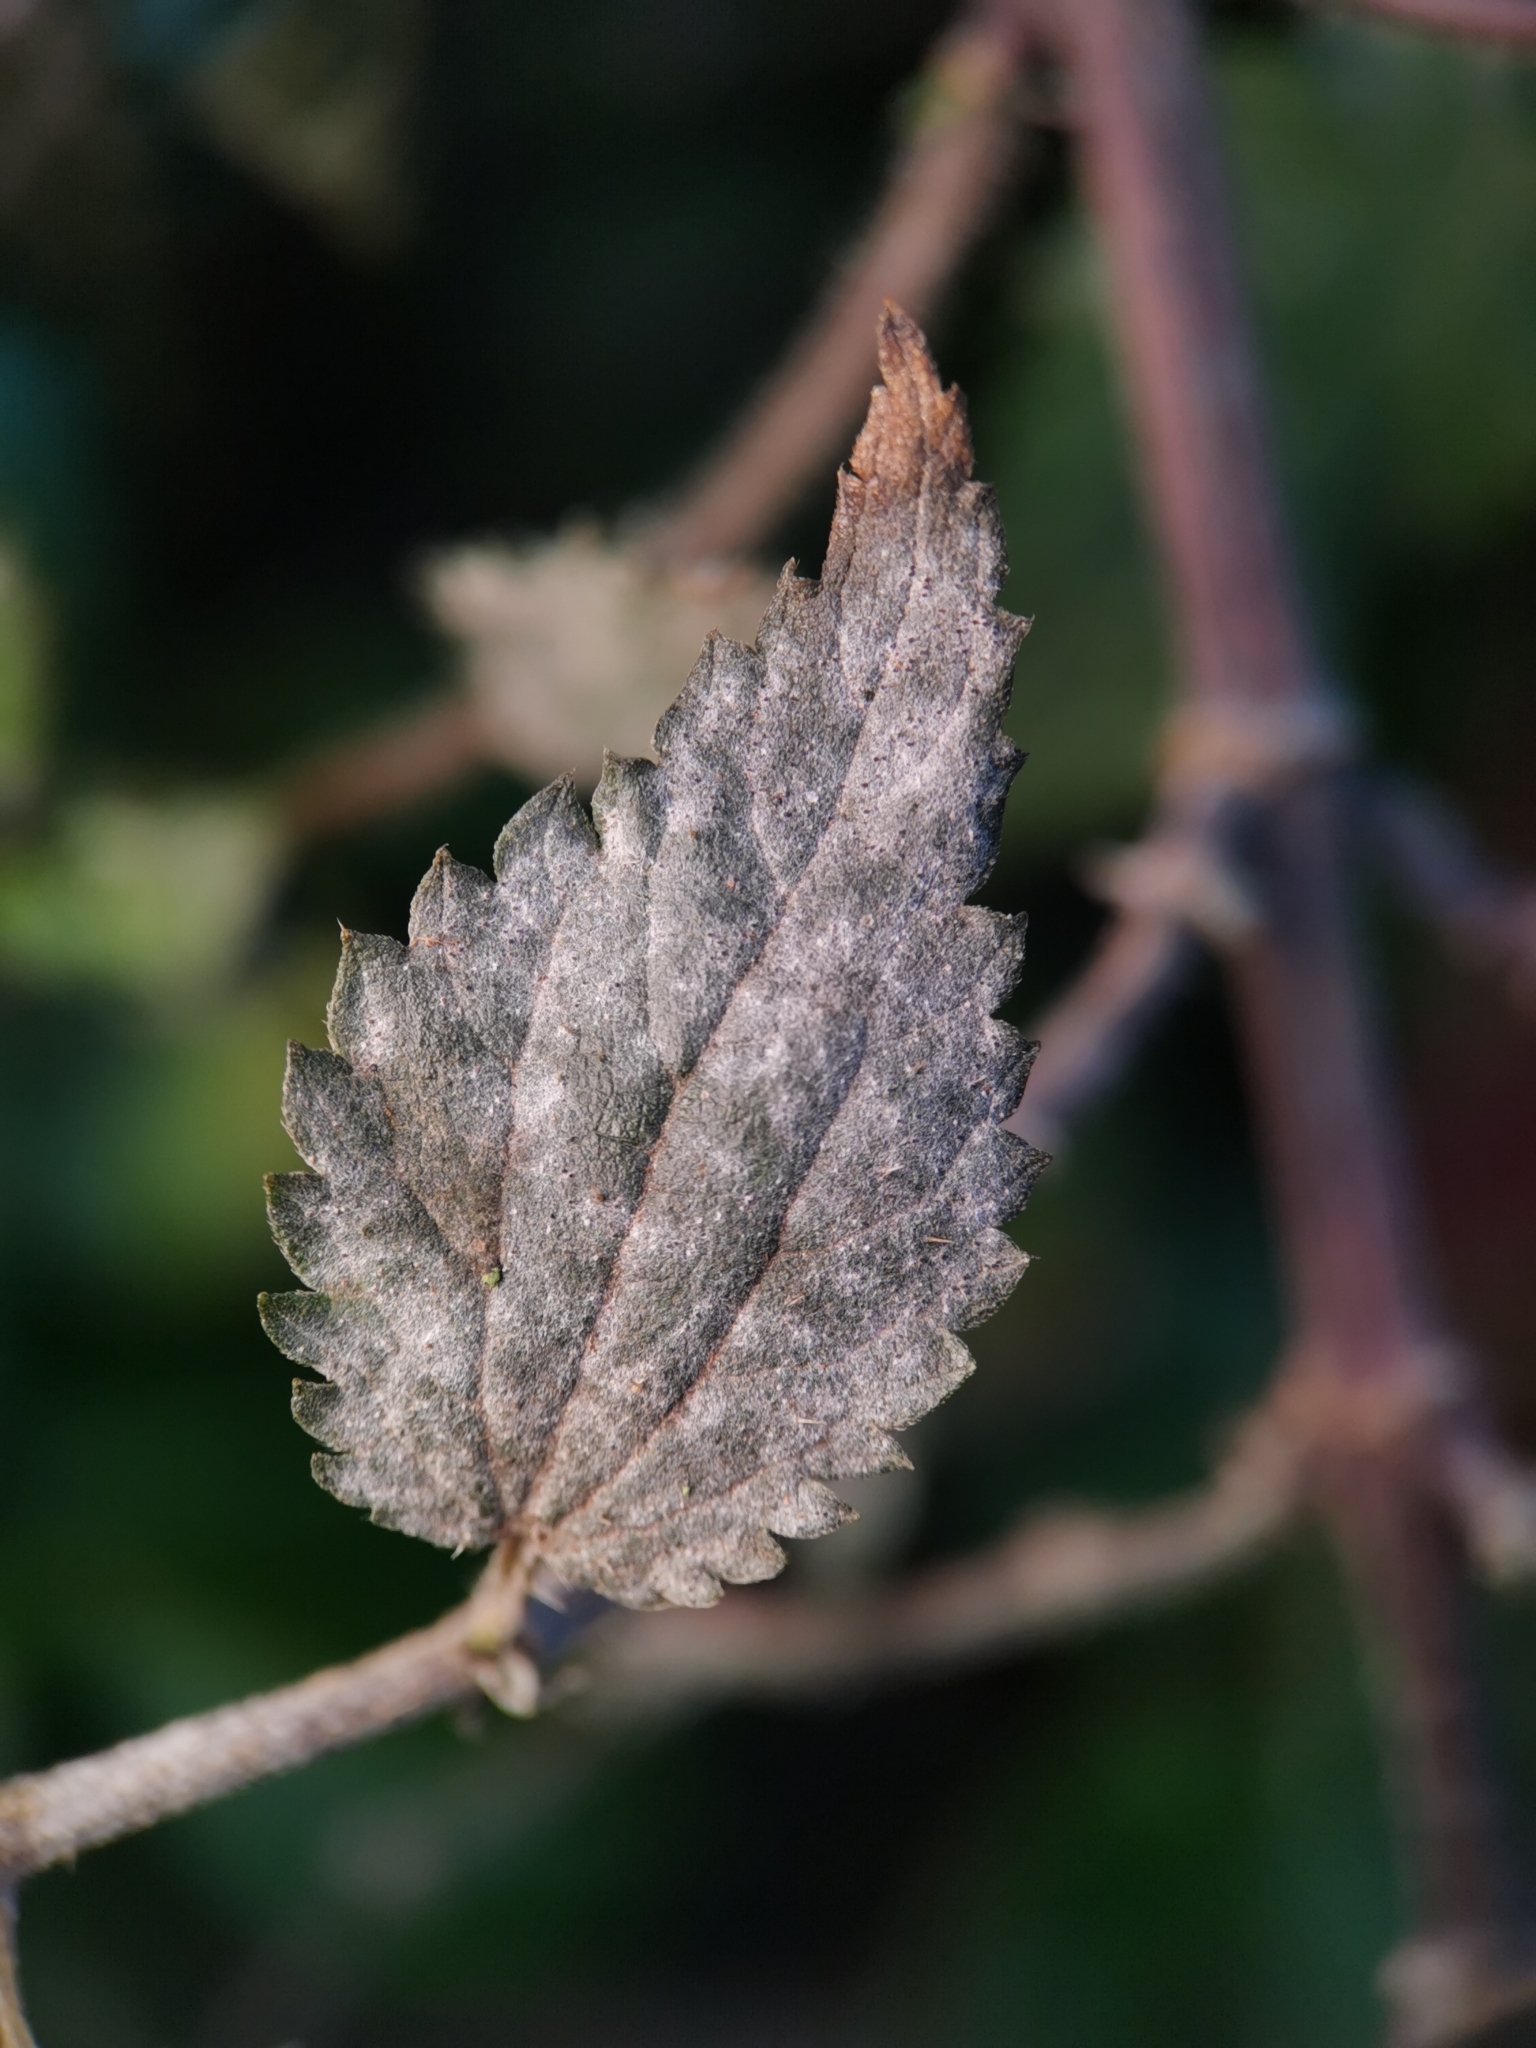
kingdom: Fungi
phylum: Ascomycota
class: Leotiomycetes
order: Helotiales
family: Erysiphaceae
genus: Erysiphe
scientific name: Erysiphe urticae
